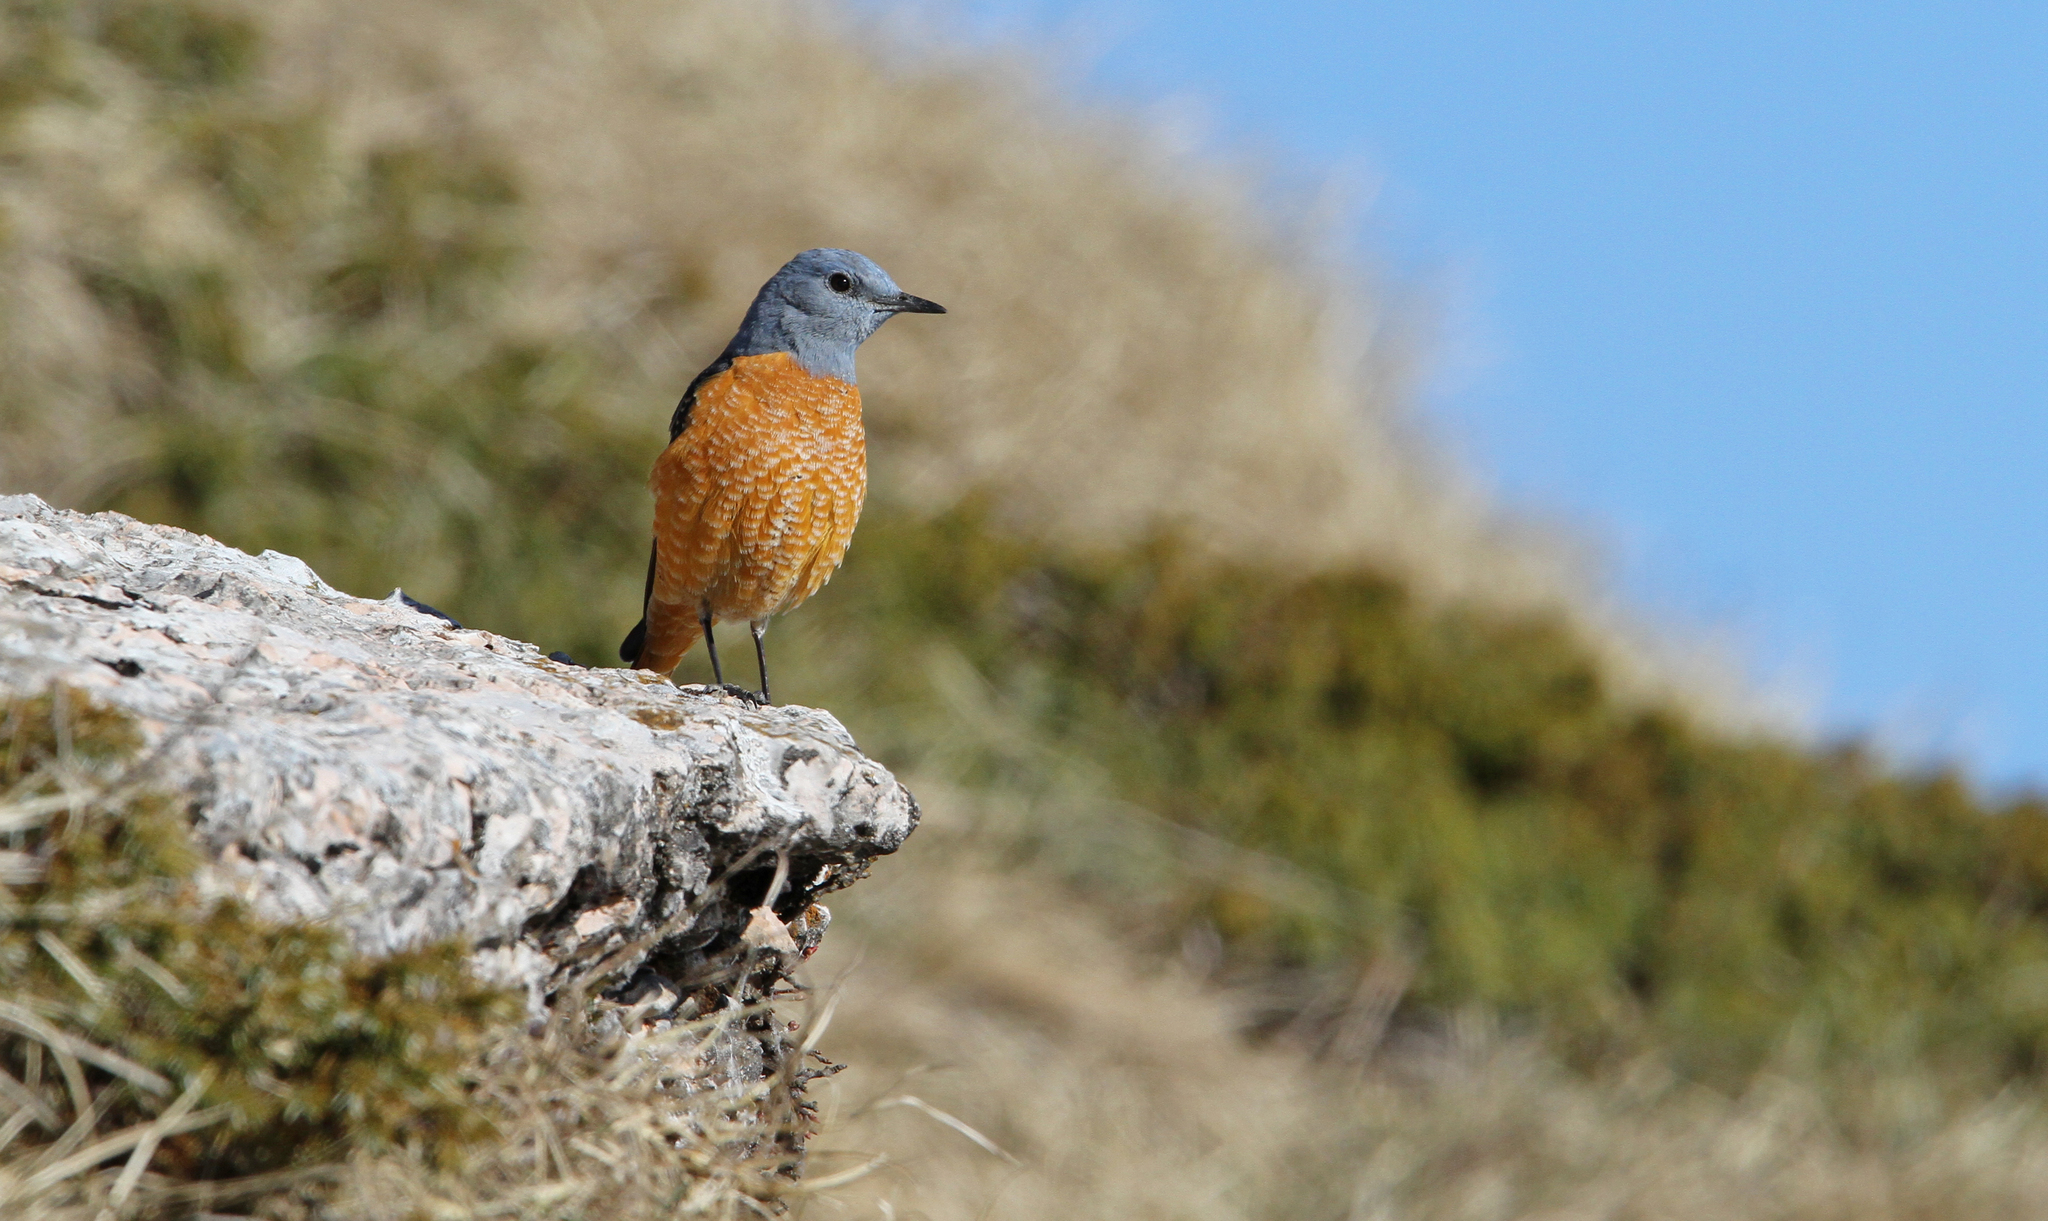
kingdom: Animalia
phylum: Chordata
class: Aves
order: Passeriformes
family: Muscicapidae
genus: Monticola
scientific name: Monticola saxatilis
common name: Rufous-tailed rock thrush
